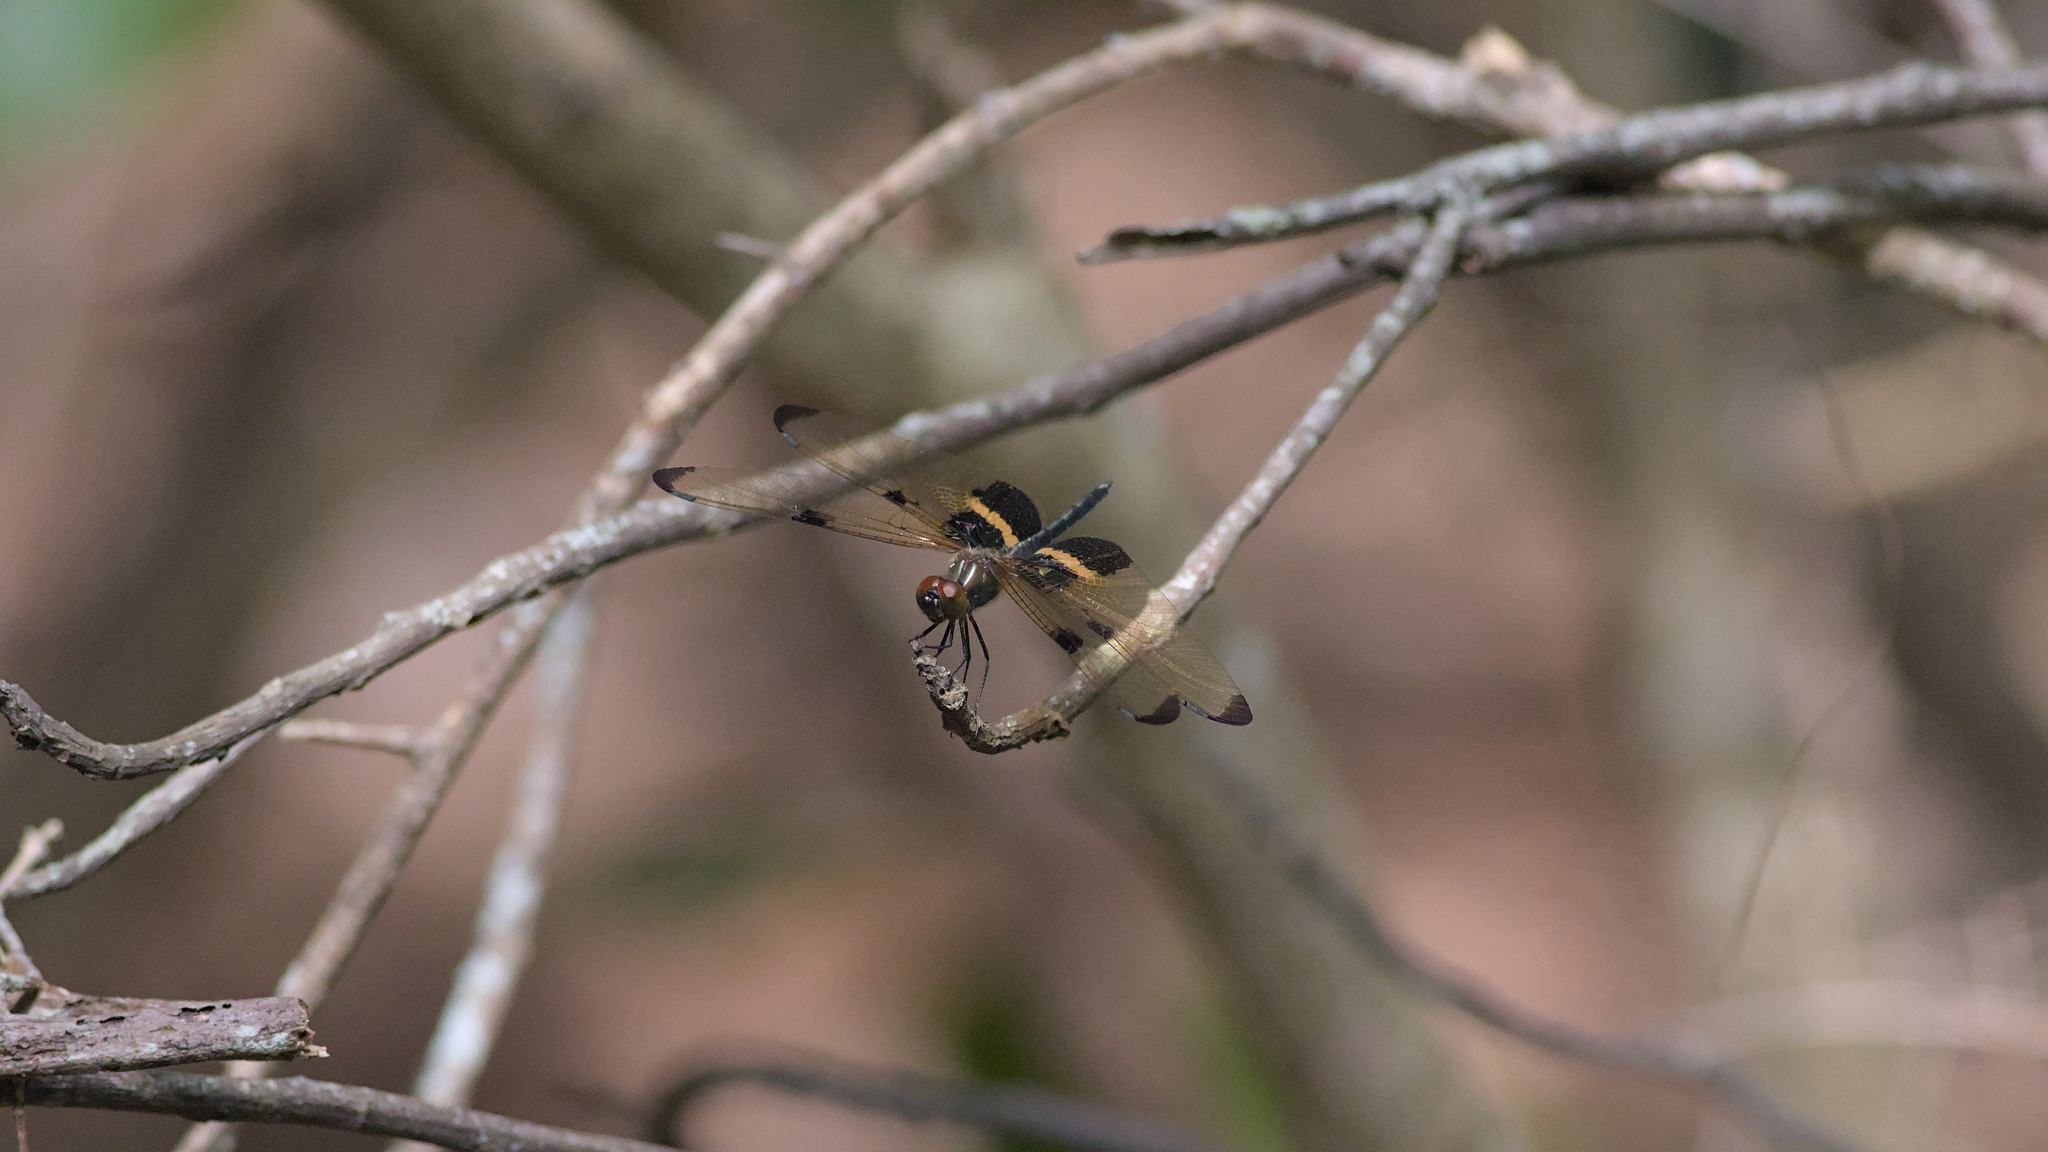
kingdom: Animalia
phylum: Arthropoda
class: Insecta
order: Odonata
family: Libellulidae
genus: Rhyothemis
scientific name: Rhyothemis phyllis
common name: Yellow-barred flutterer
